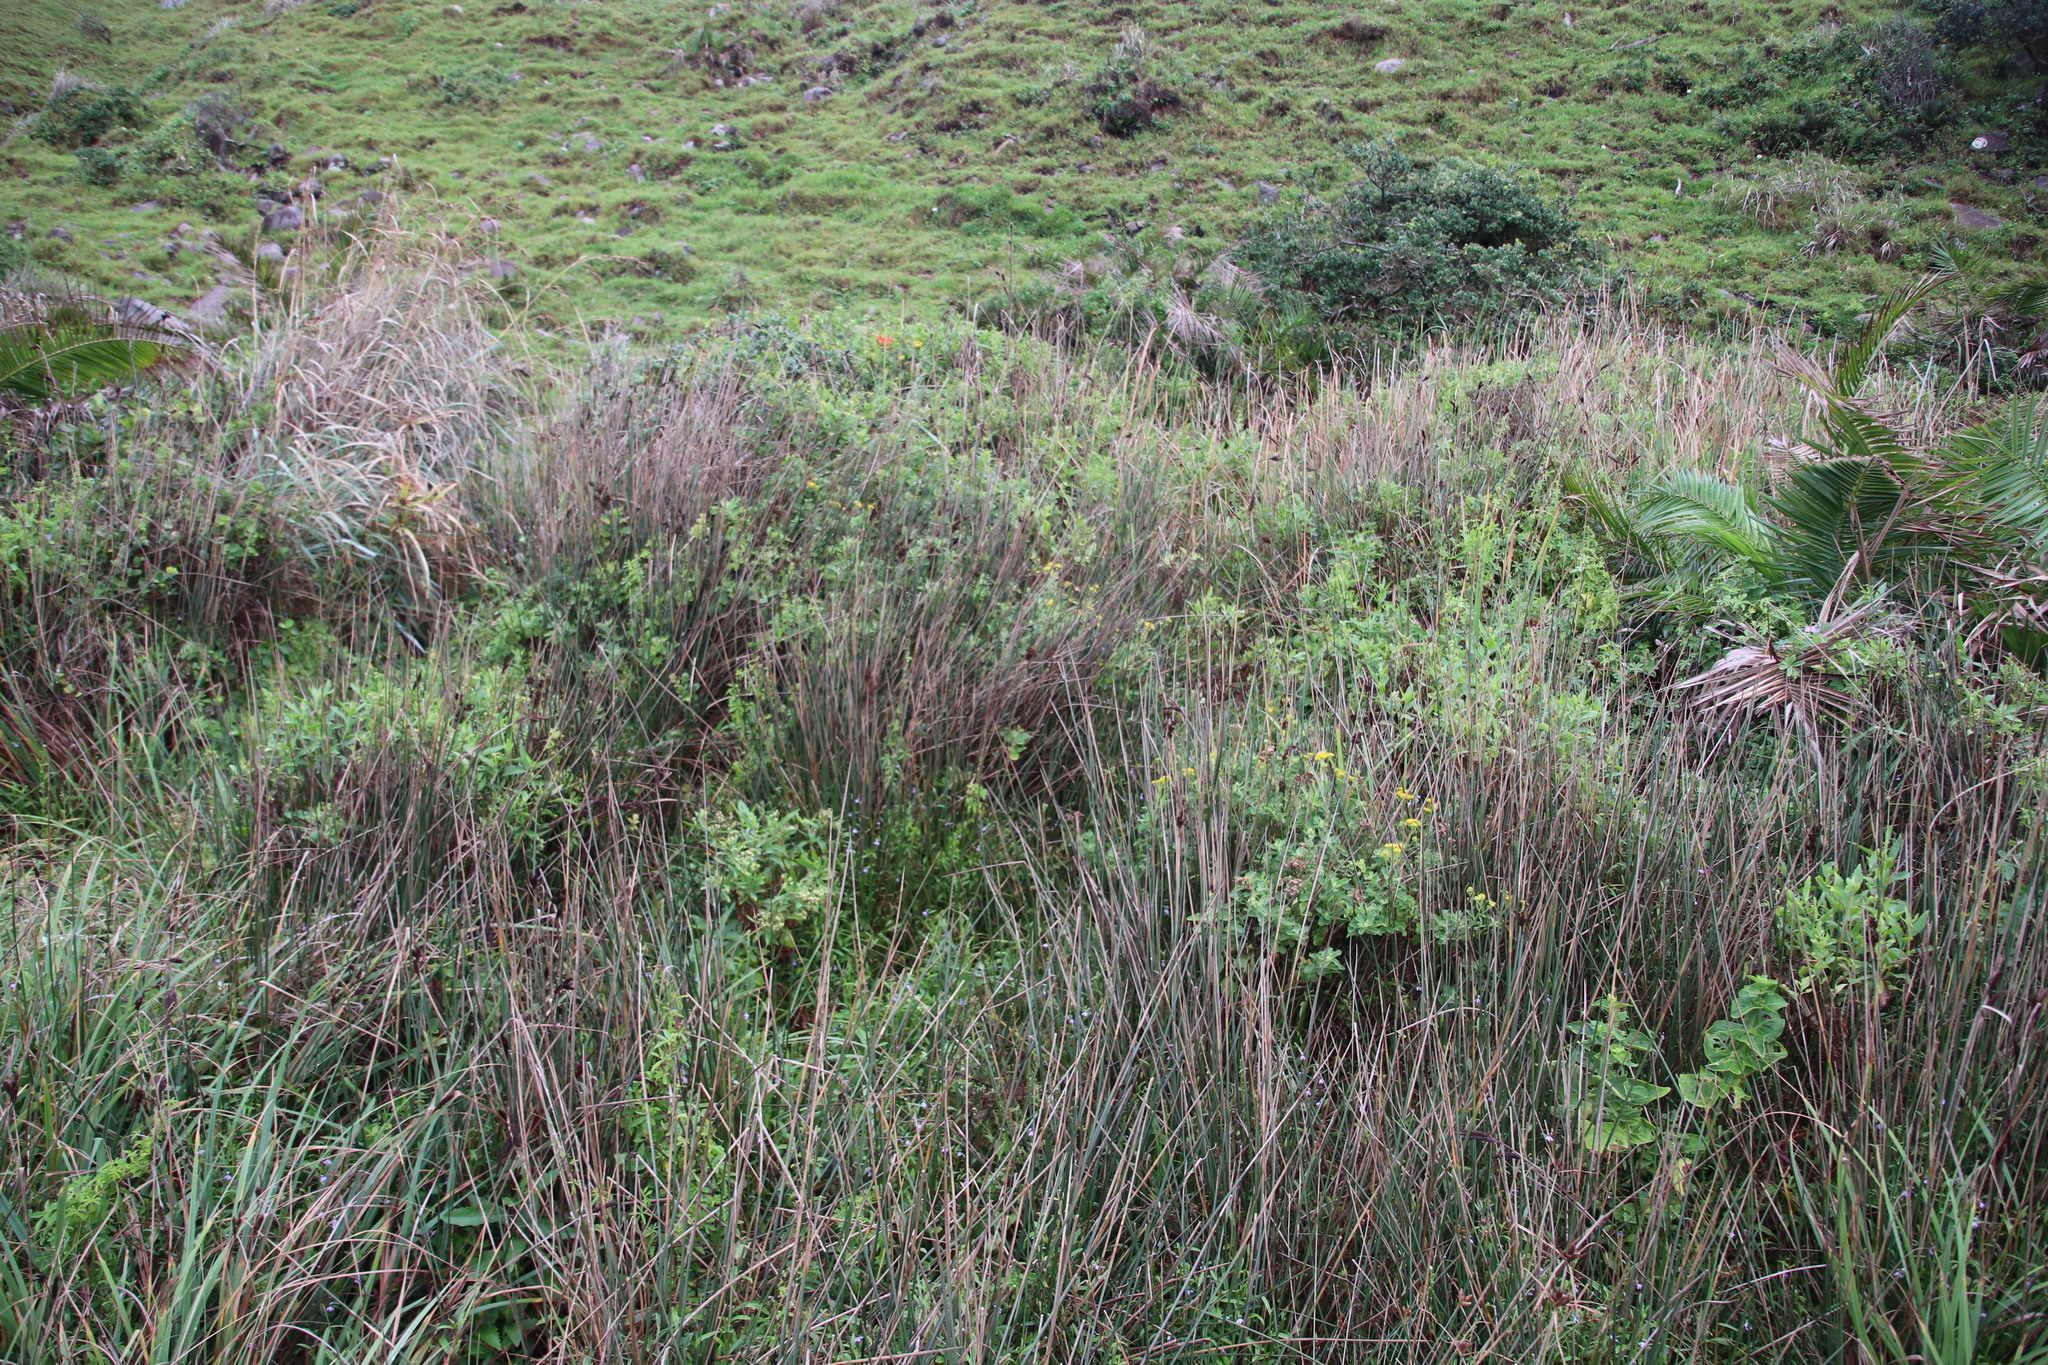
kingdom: Plantae
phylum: Tracheophyta
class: Magnoliopsida
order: Asterales
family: Asteraceae
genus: Nidorella
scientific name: Nidorella ivifolia
